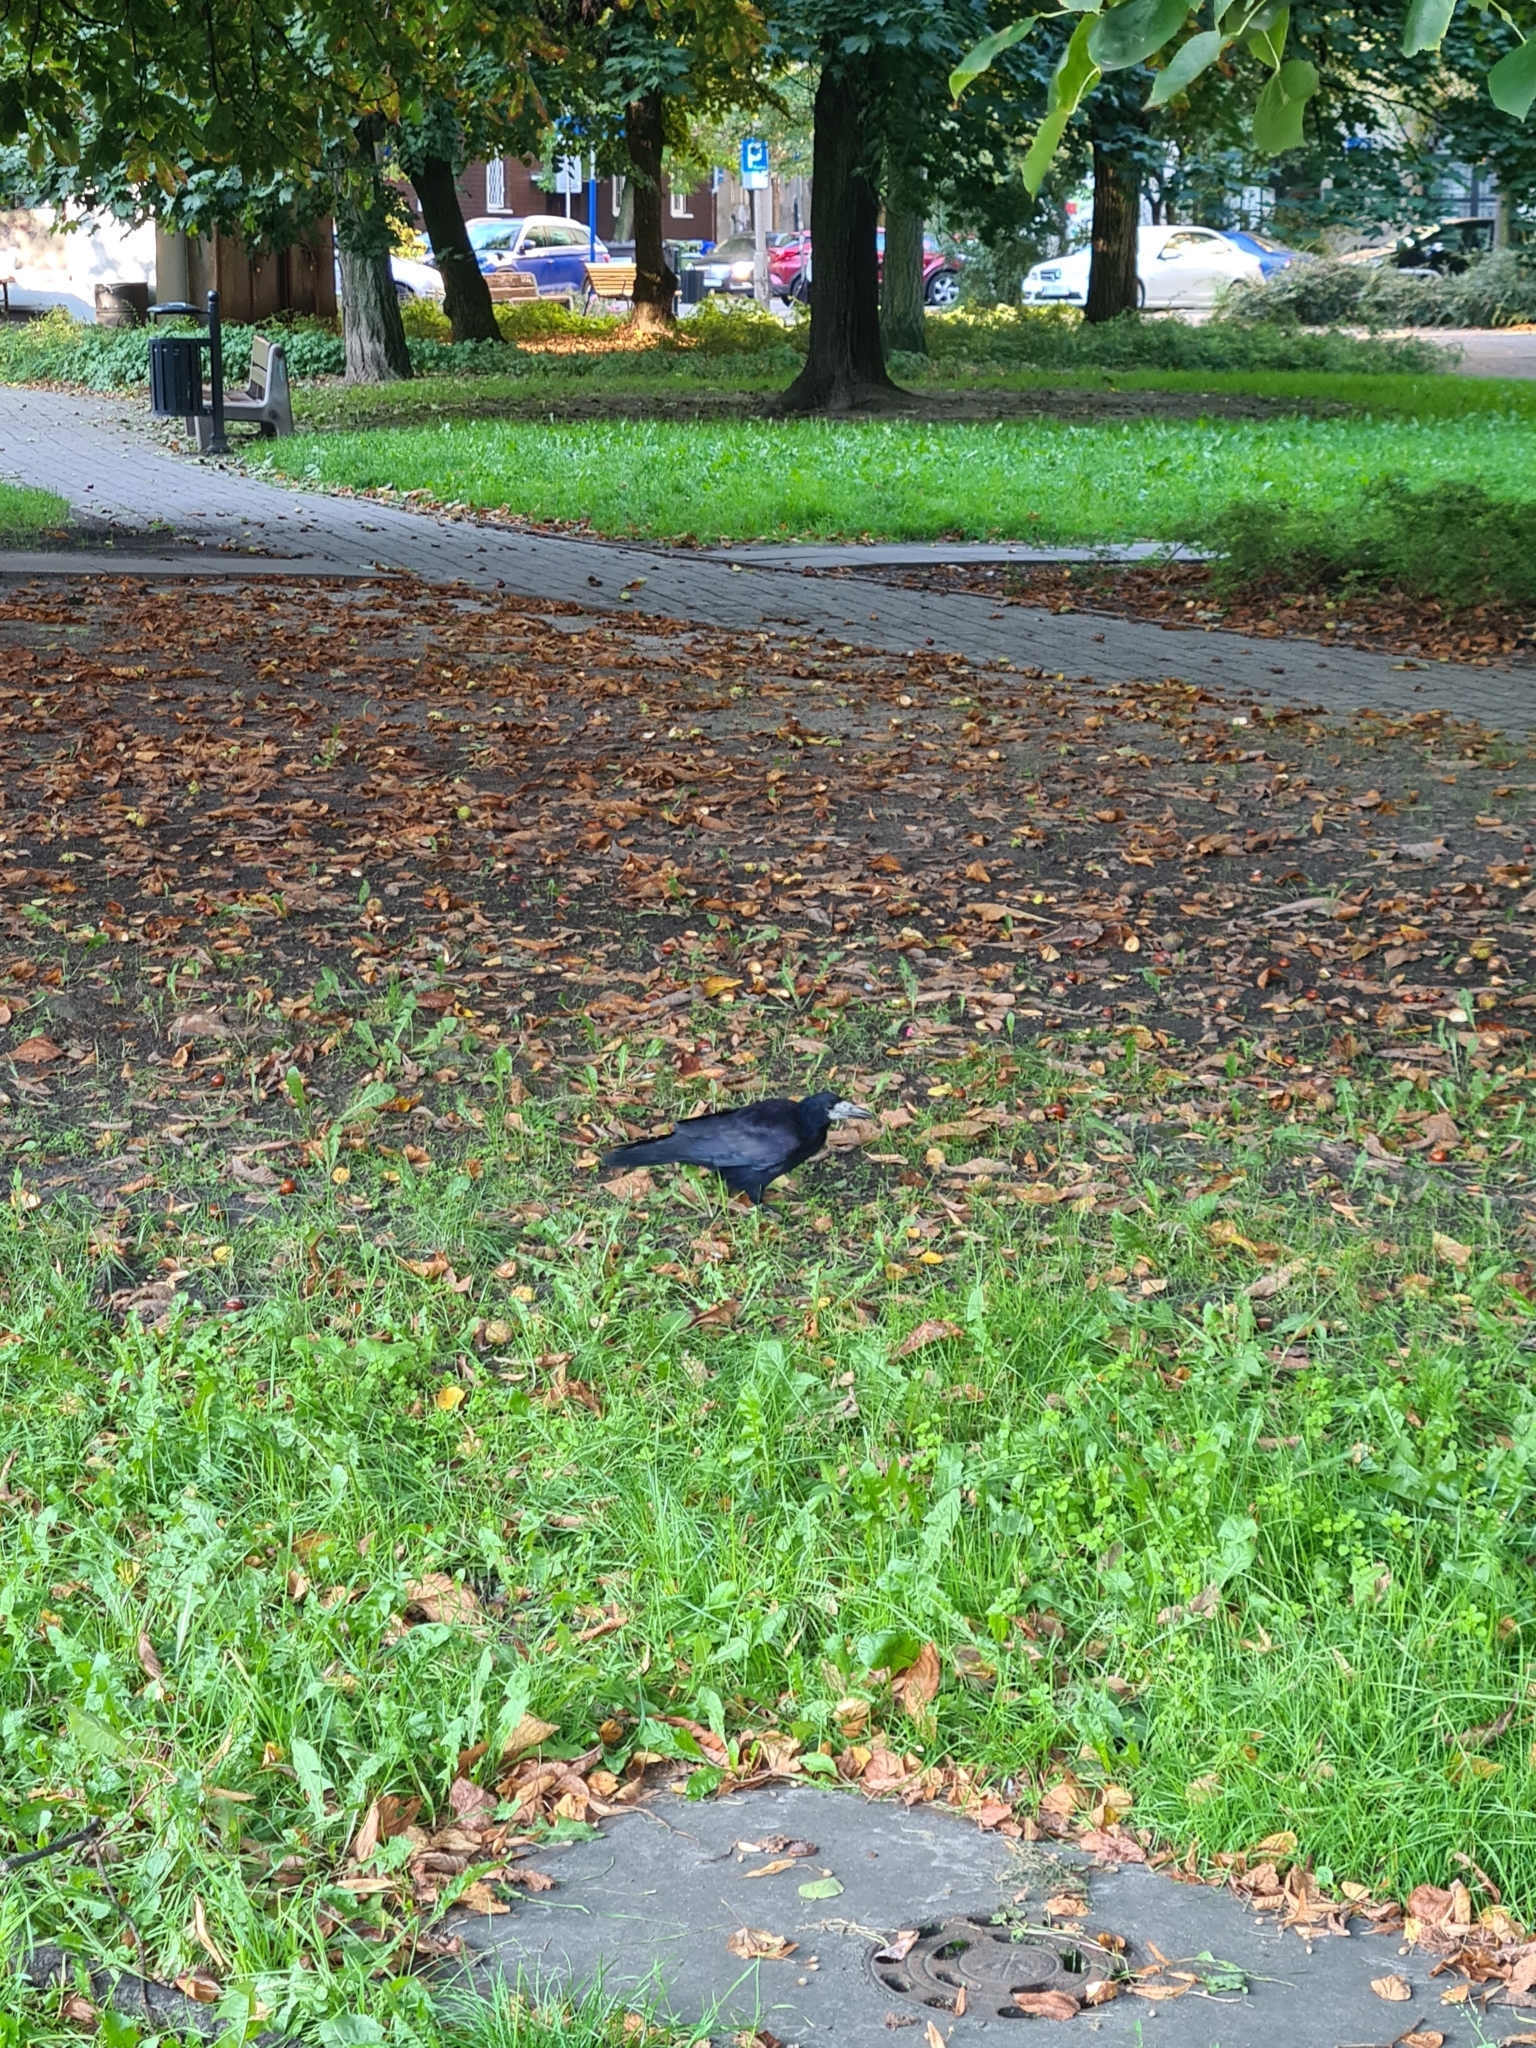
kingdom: Animalia
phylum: Chordata
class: Aves
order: Passeriformes
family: Corvidae
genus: Corvus
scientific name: Corvus frugilegus
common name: Rook
